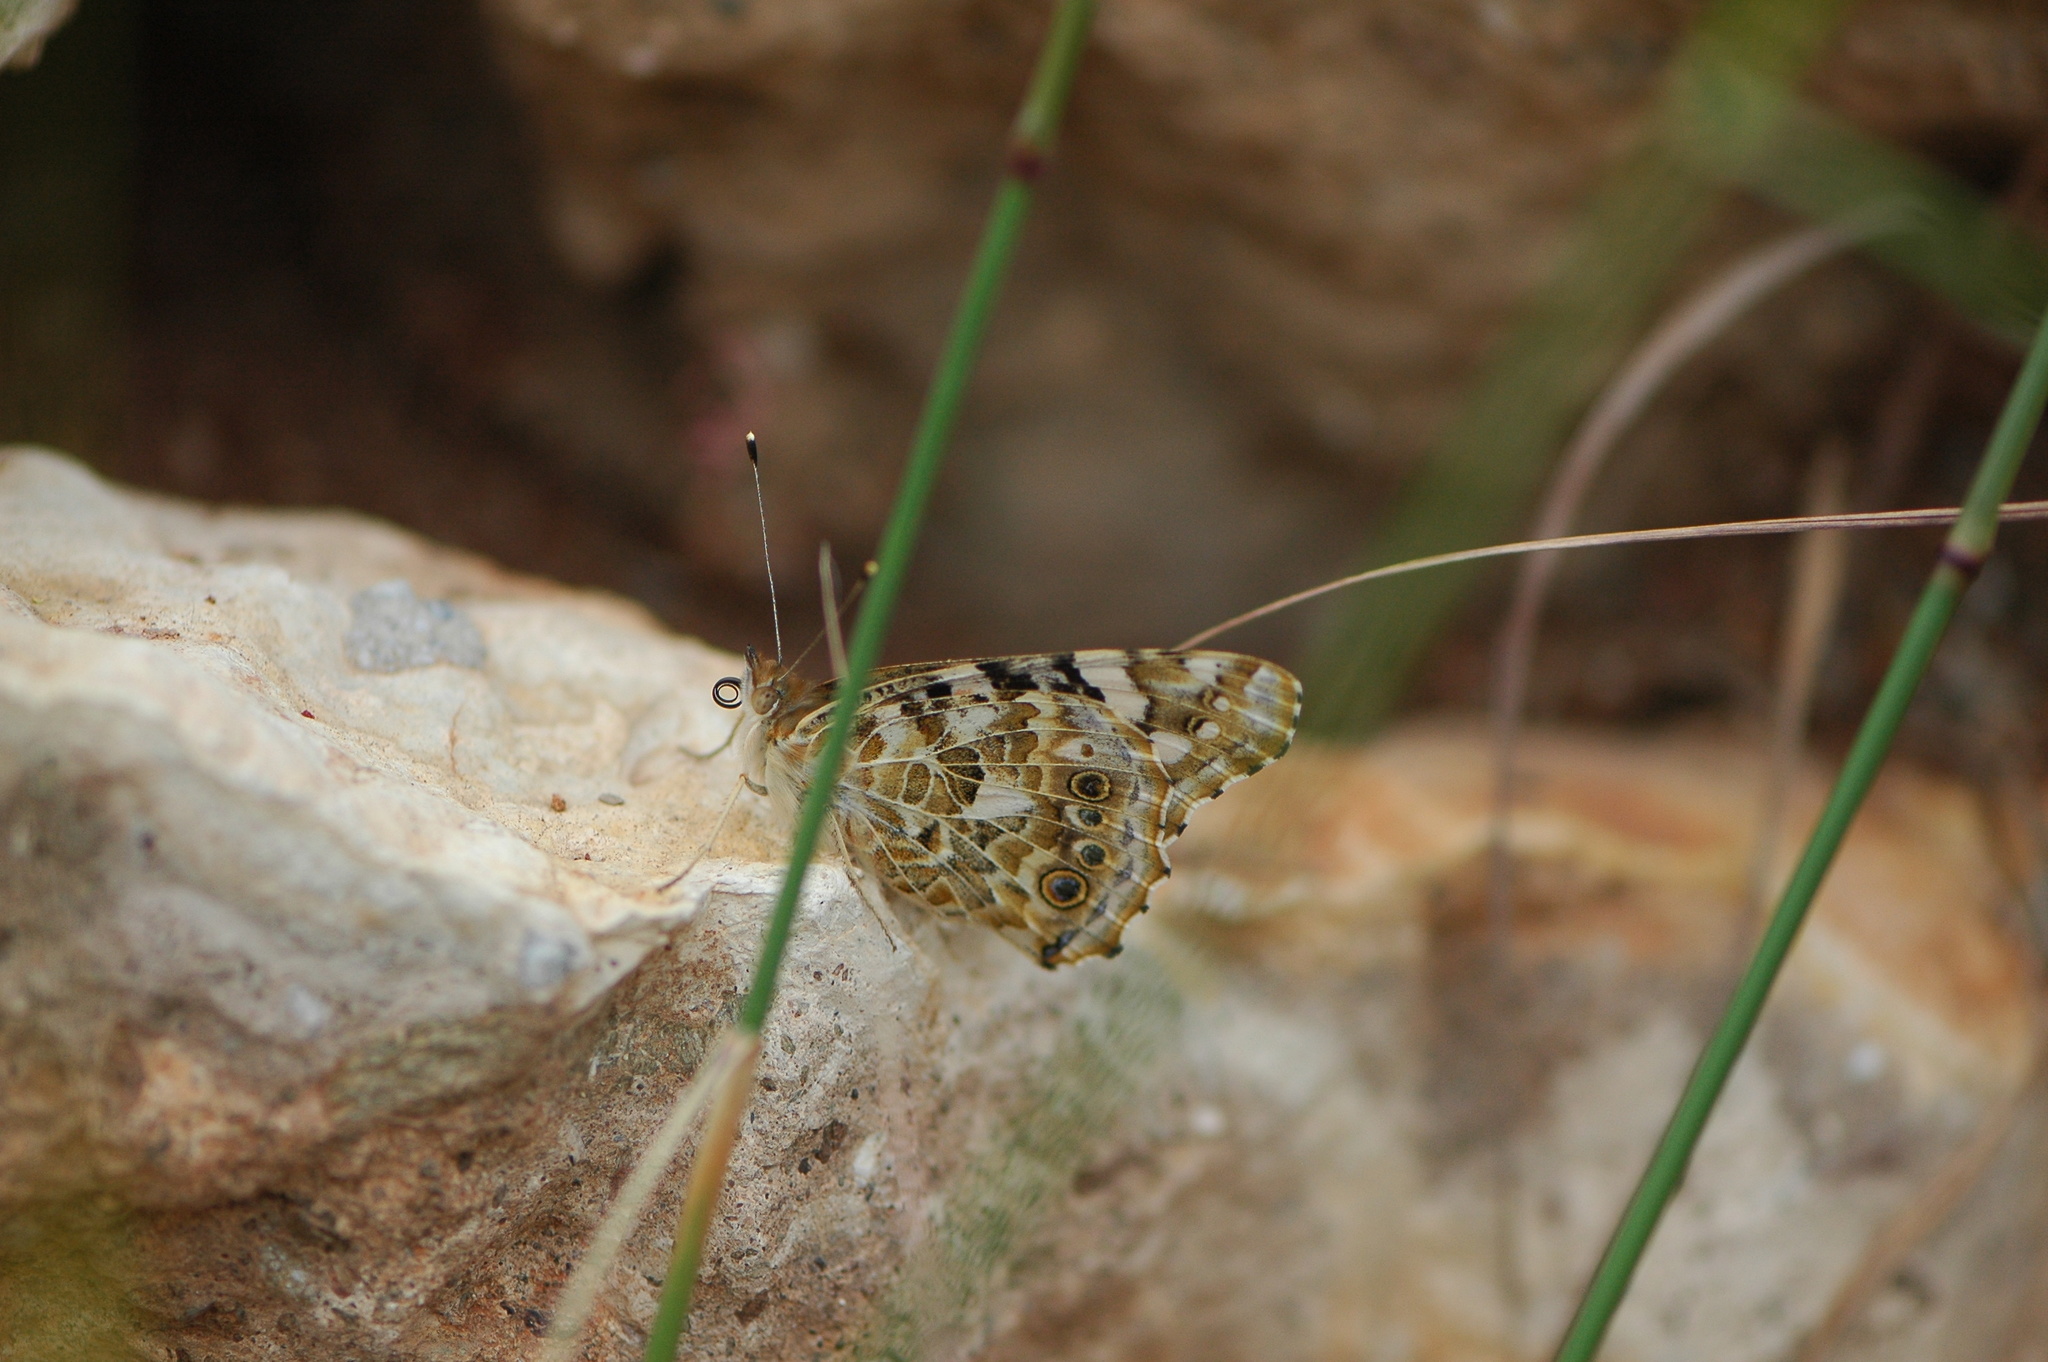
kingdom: Animalia
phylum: Arthropoda
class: Insecta
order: Lepidoptera
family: Nymphalidae
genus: Vanessa
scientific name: Vanessa cardui
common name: Painted lady
